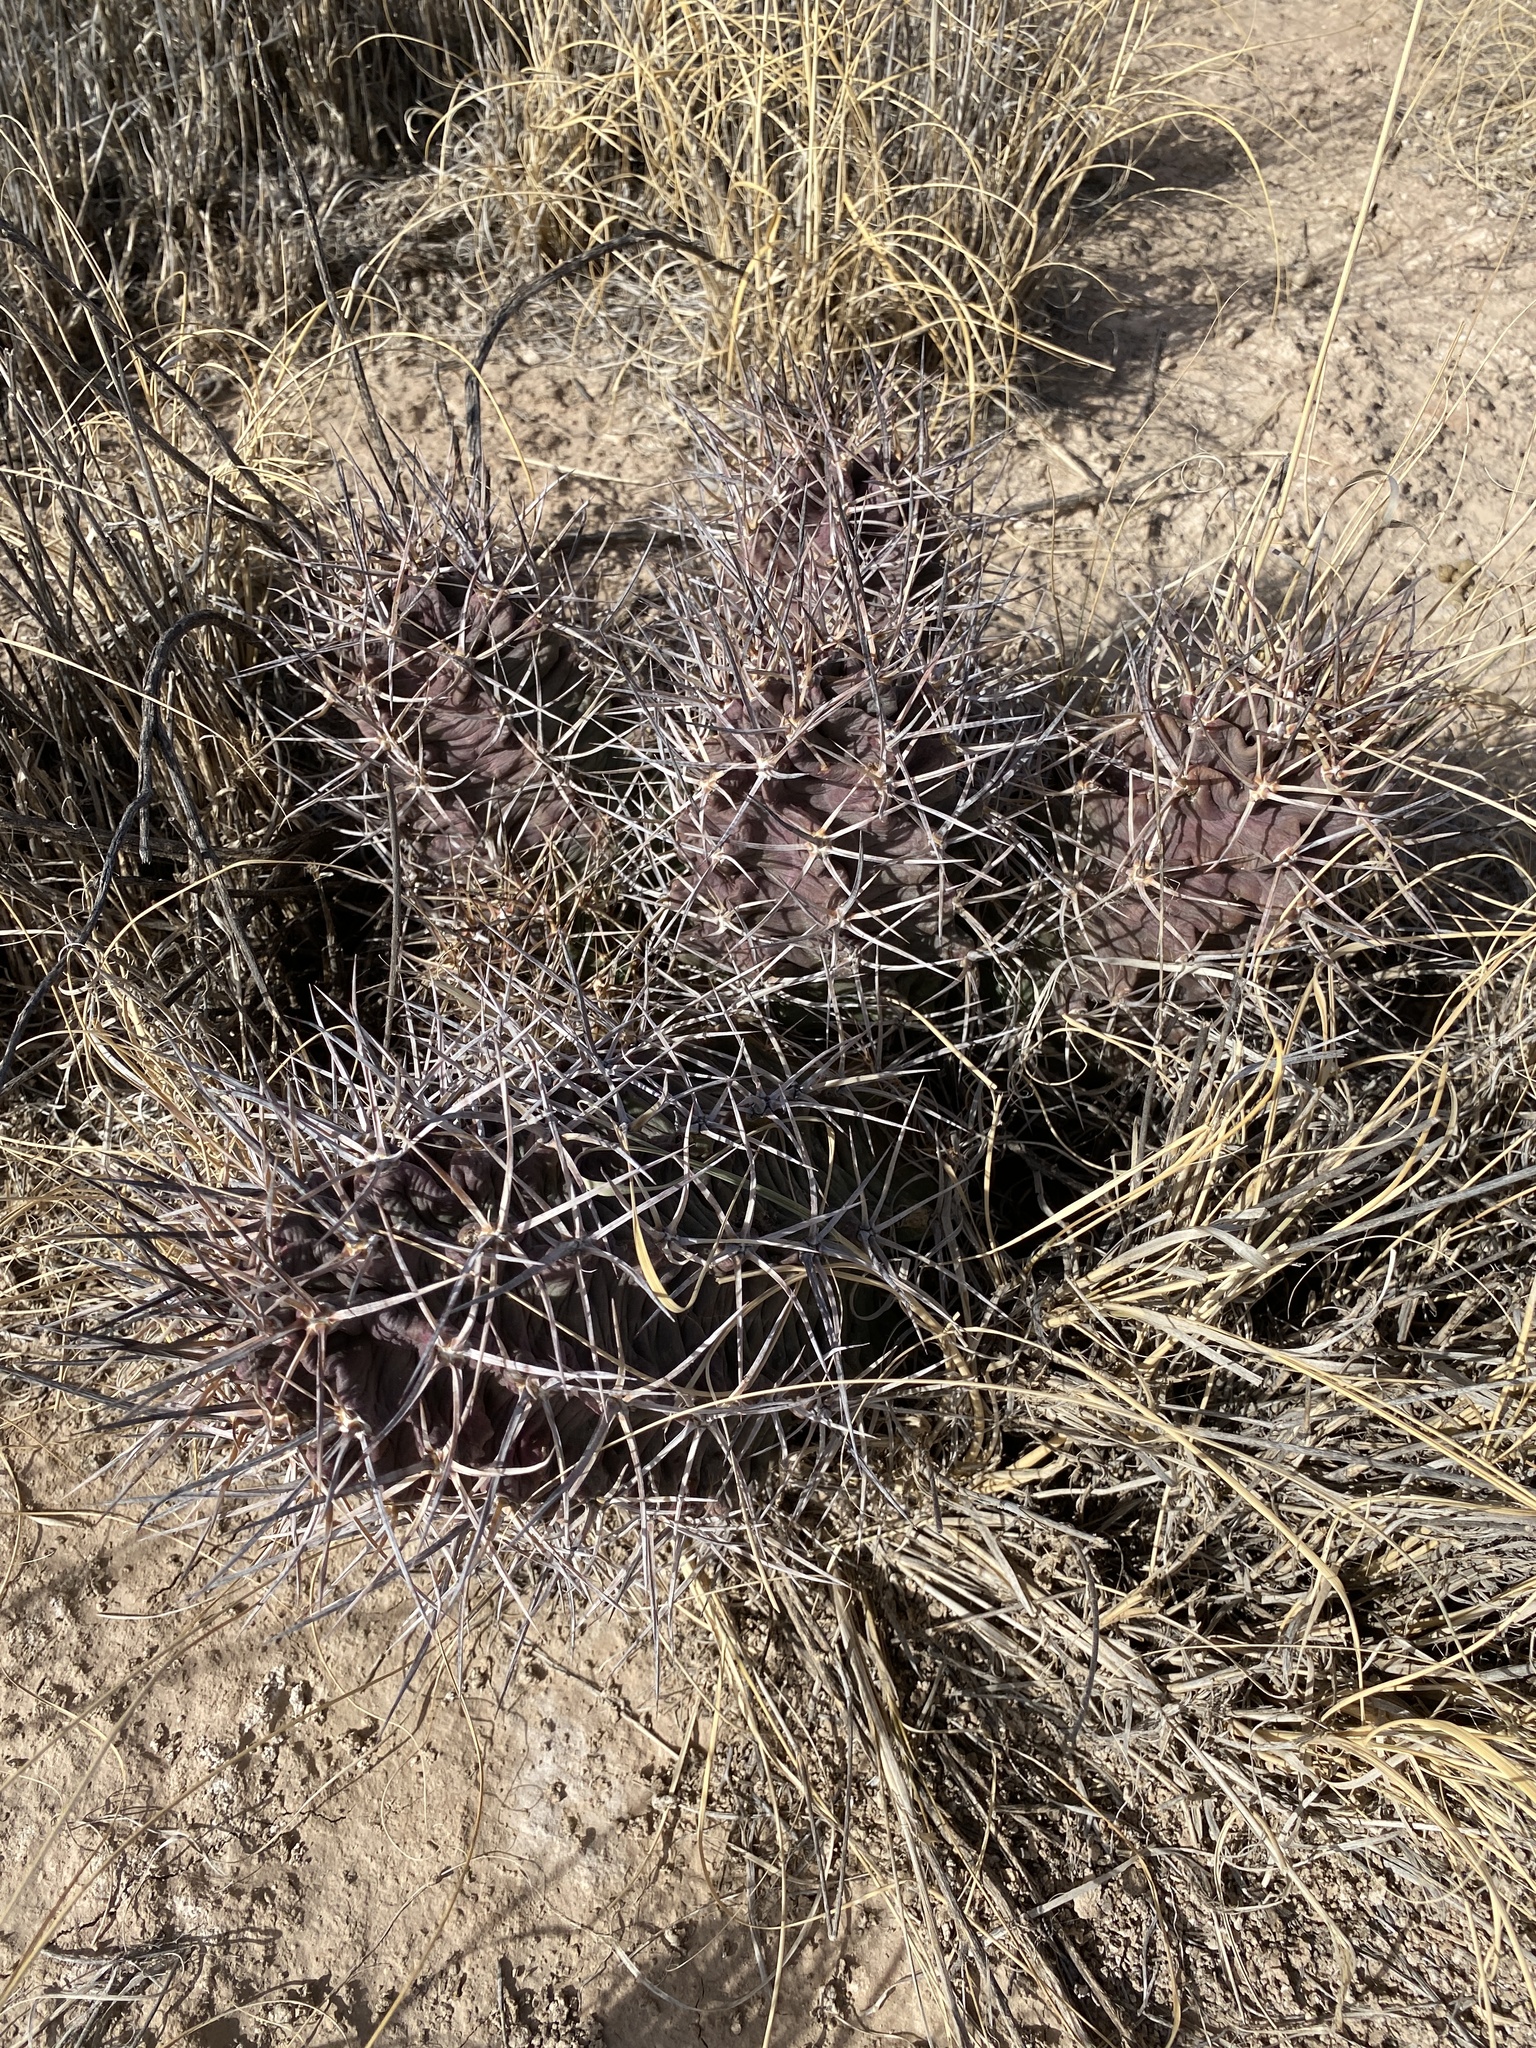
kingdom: Plantae
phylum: Tracheophyta
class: Magnoliopsida
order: Caryophyllales
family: Cactaceae
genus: Echinocereus
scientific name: Echinocereus triglochidiatus
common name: Claretcup hedgehog
